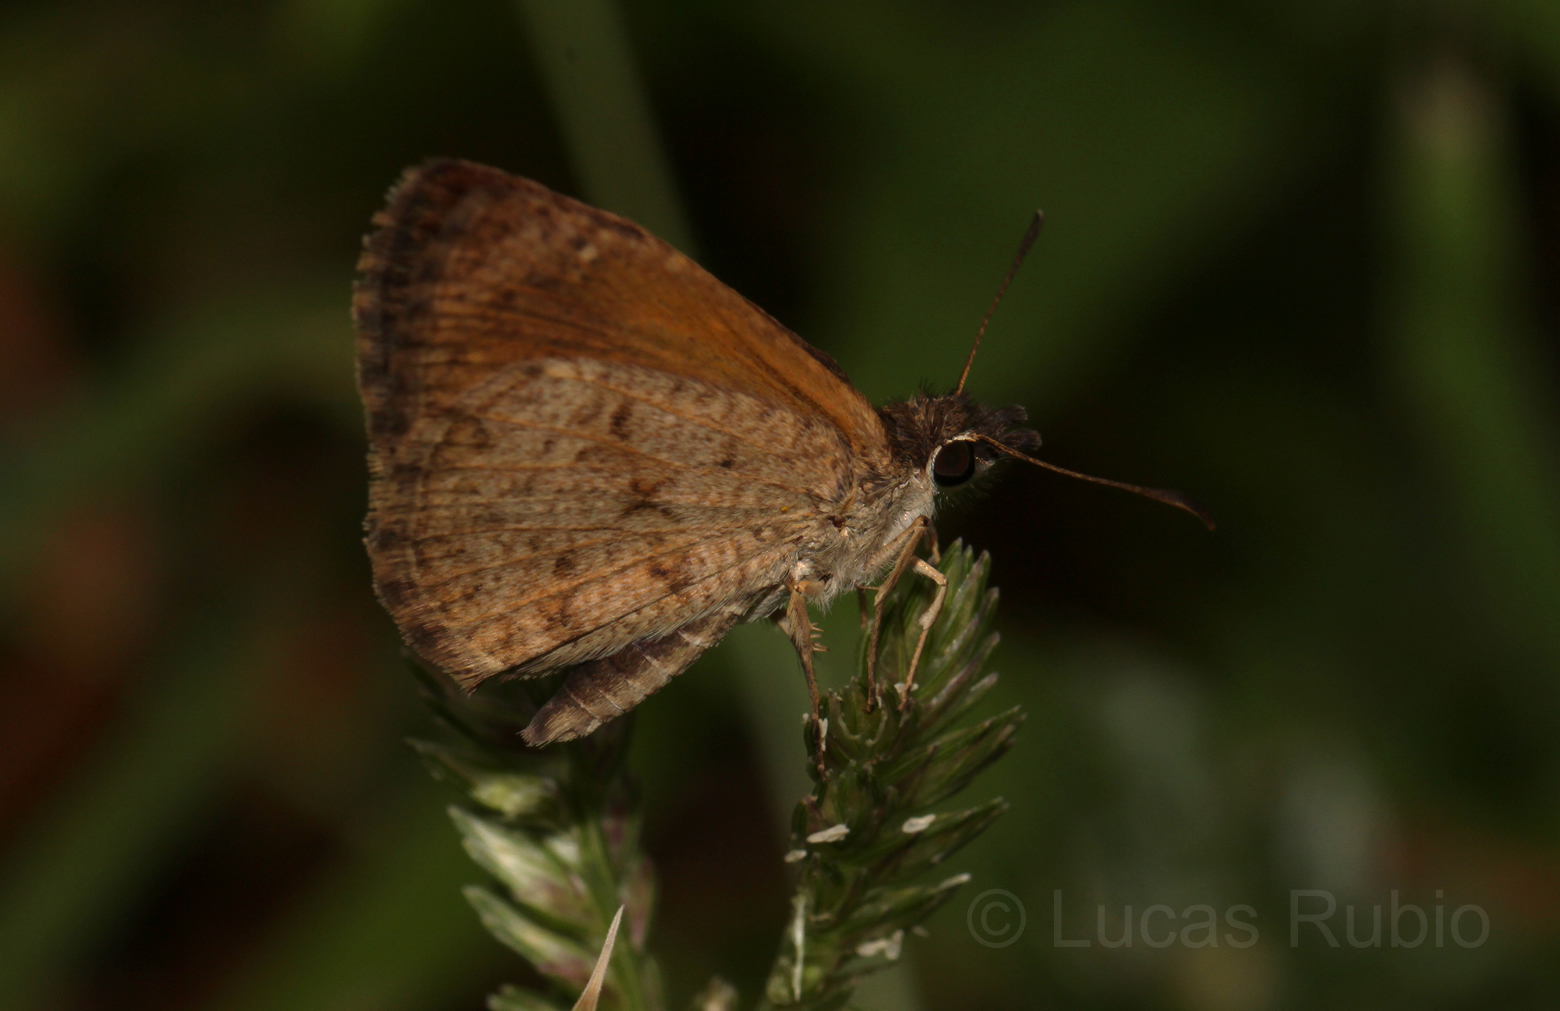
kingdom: Animalia
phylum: Arthropoda
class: Insecta
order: Lepidoptera
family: Hesperiidae
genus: Zopyrion
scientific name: Zopyrion evenor
